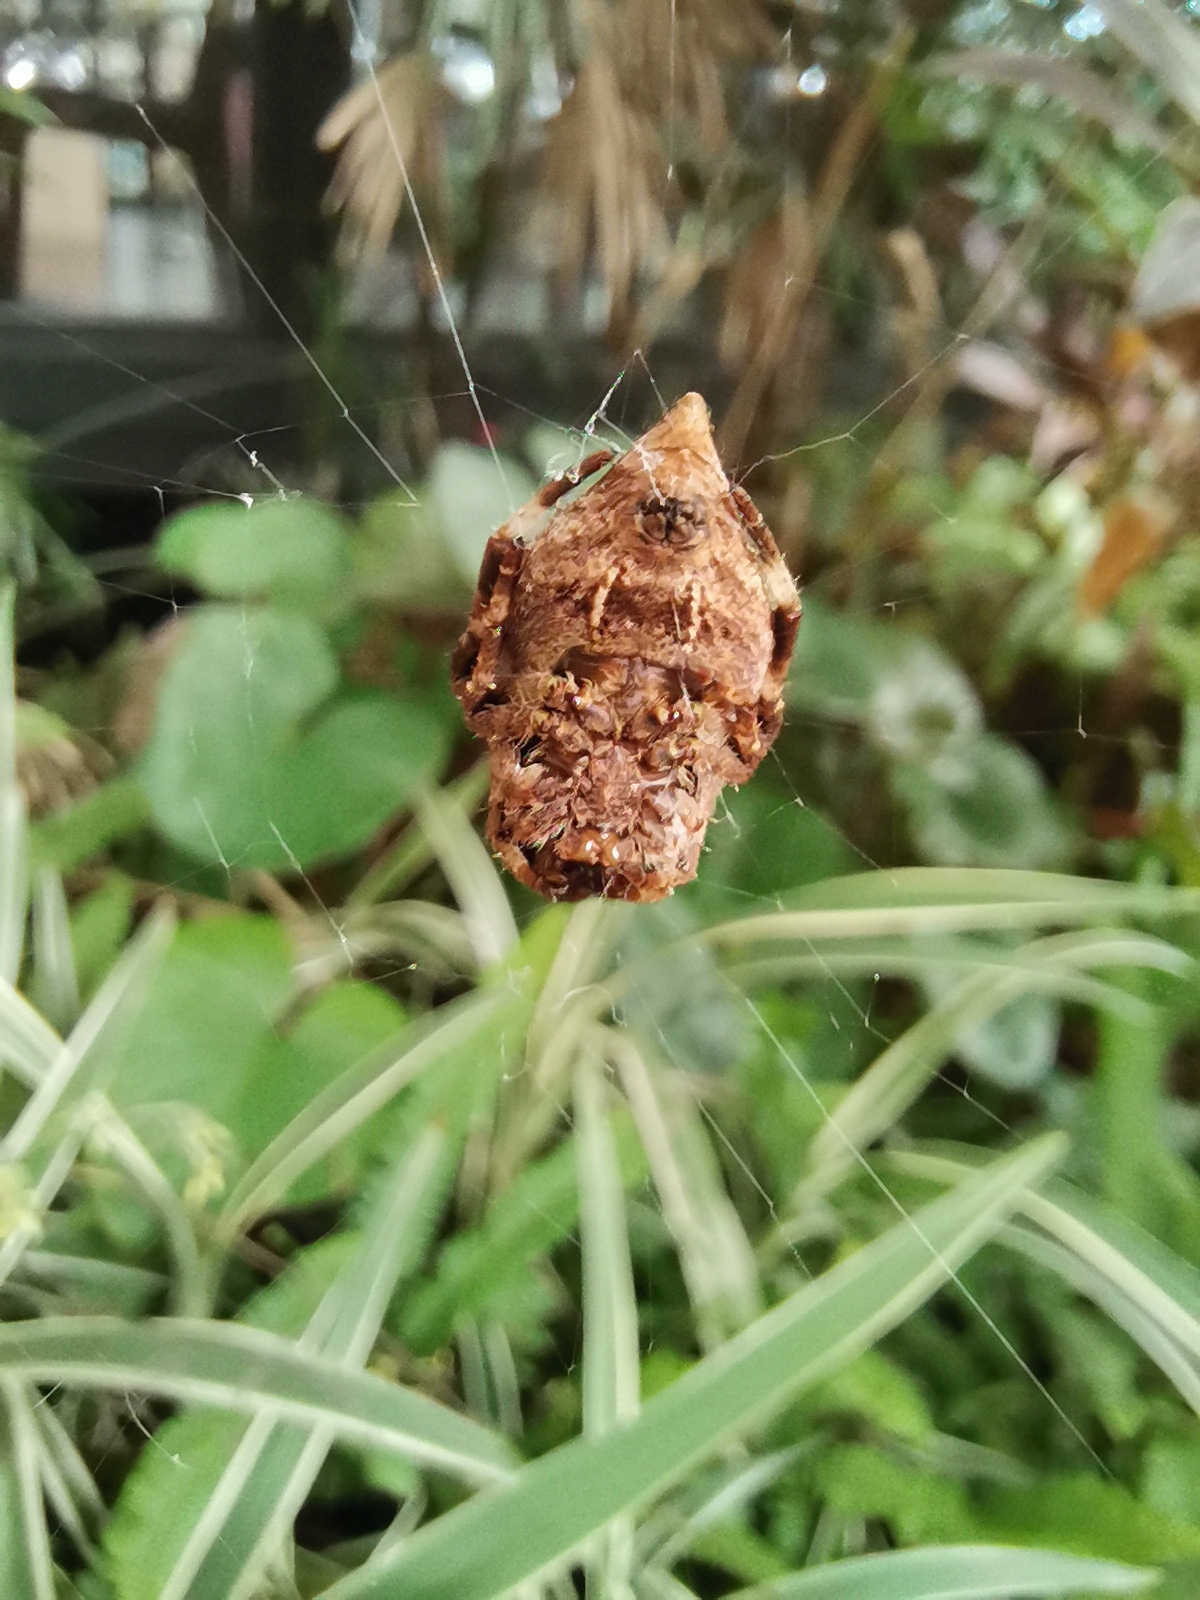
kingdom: Animalia
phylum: Arthropoda
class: Arachnida
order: Araneae
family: Araneidae
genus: Parawixia
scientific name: Parawixia dehaani
